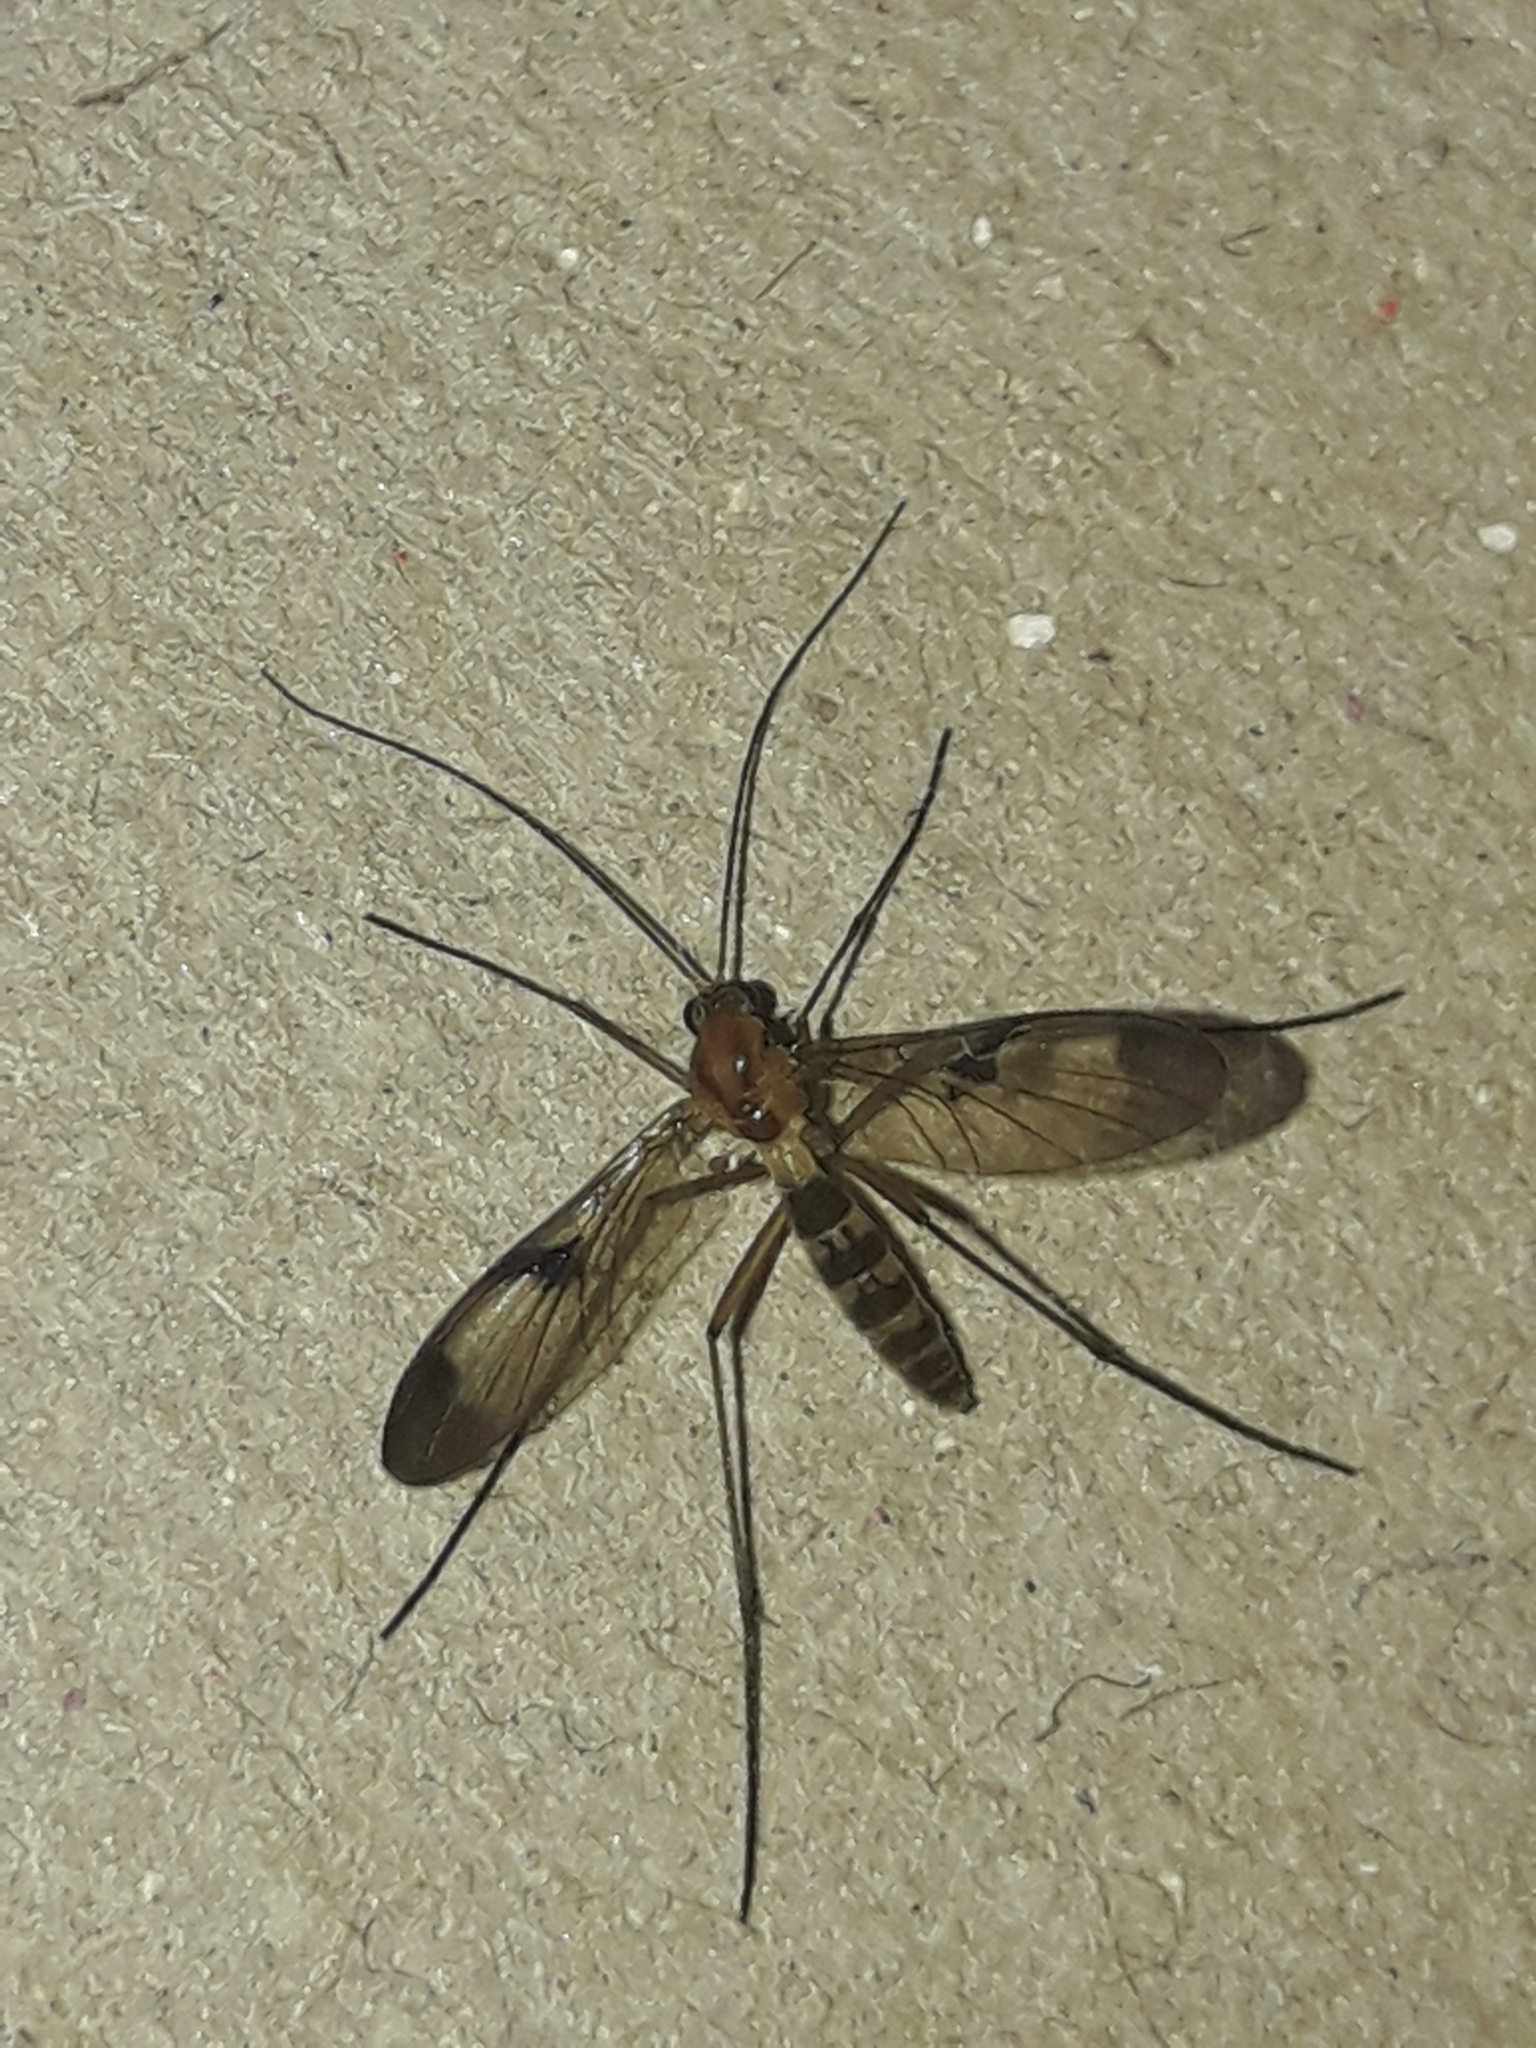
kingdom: Animalia
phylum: Arthropoda
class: Insecta
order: Diptera
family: Keroplatidae
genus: Macrocera
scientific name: Macrocera scoparia
